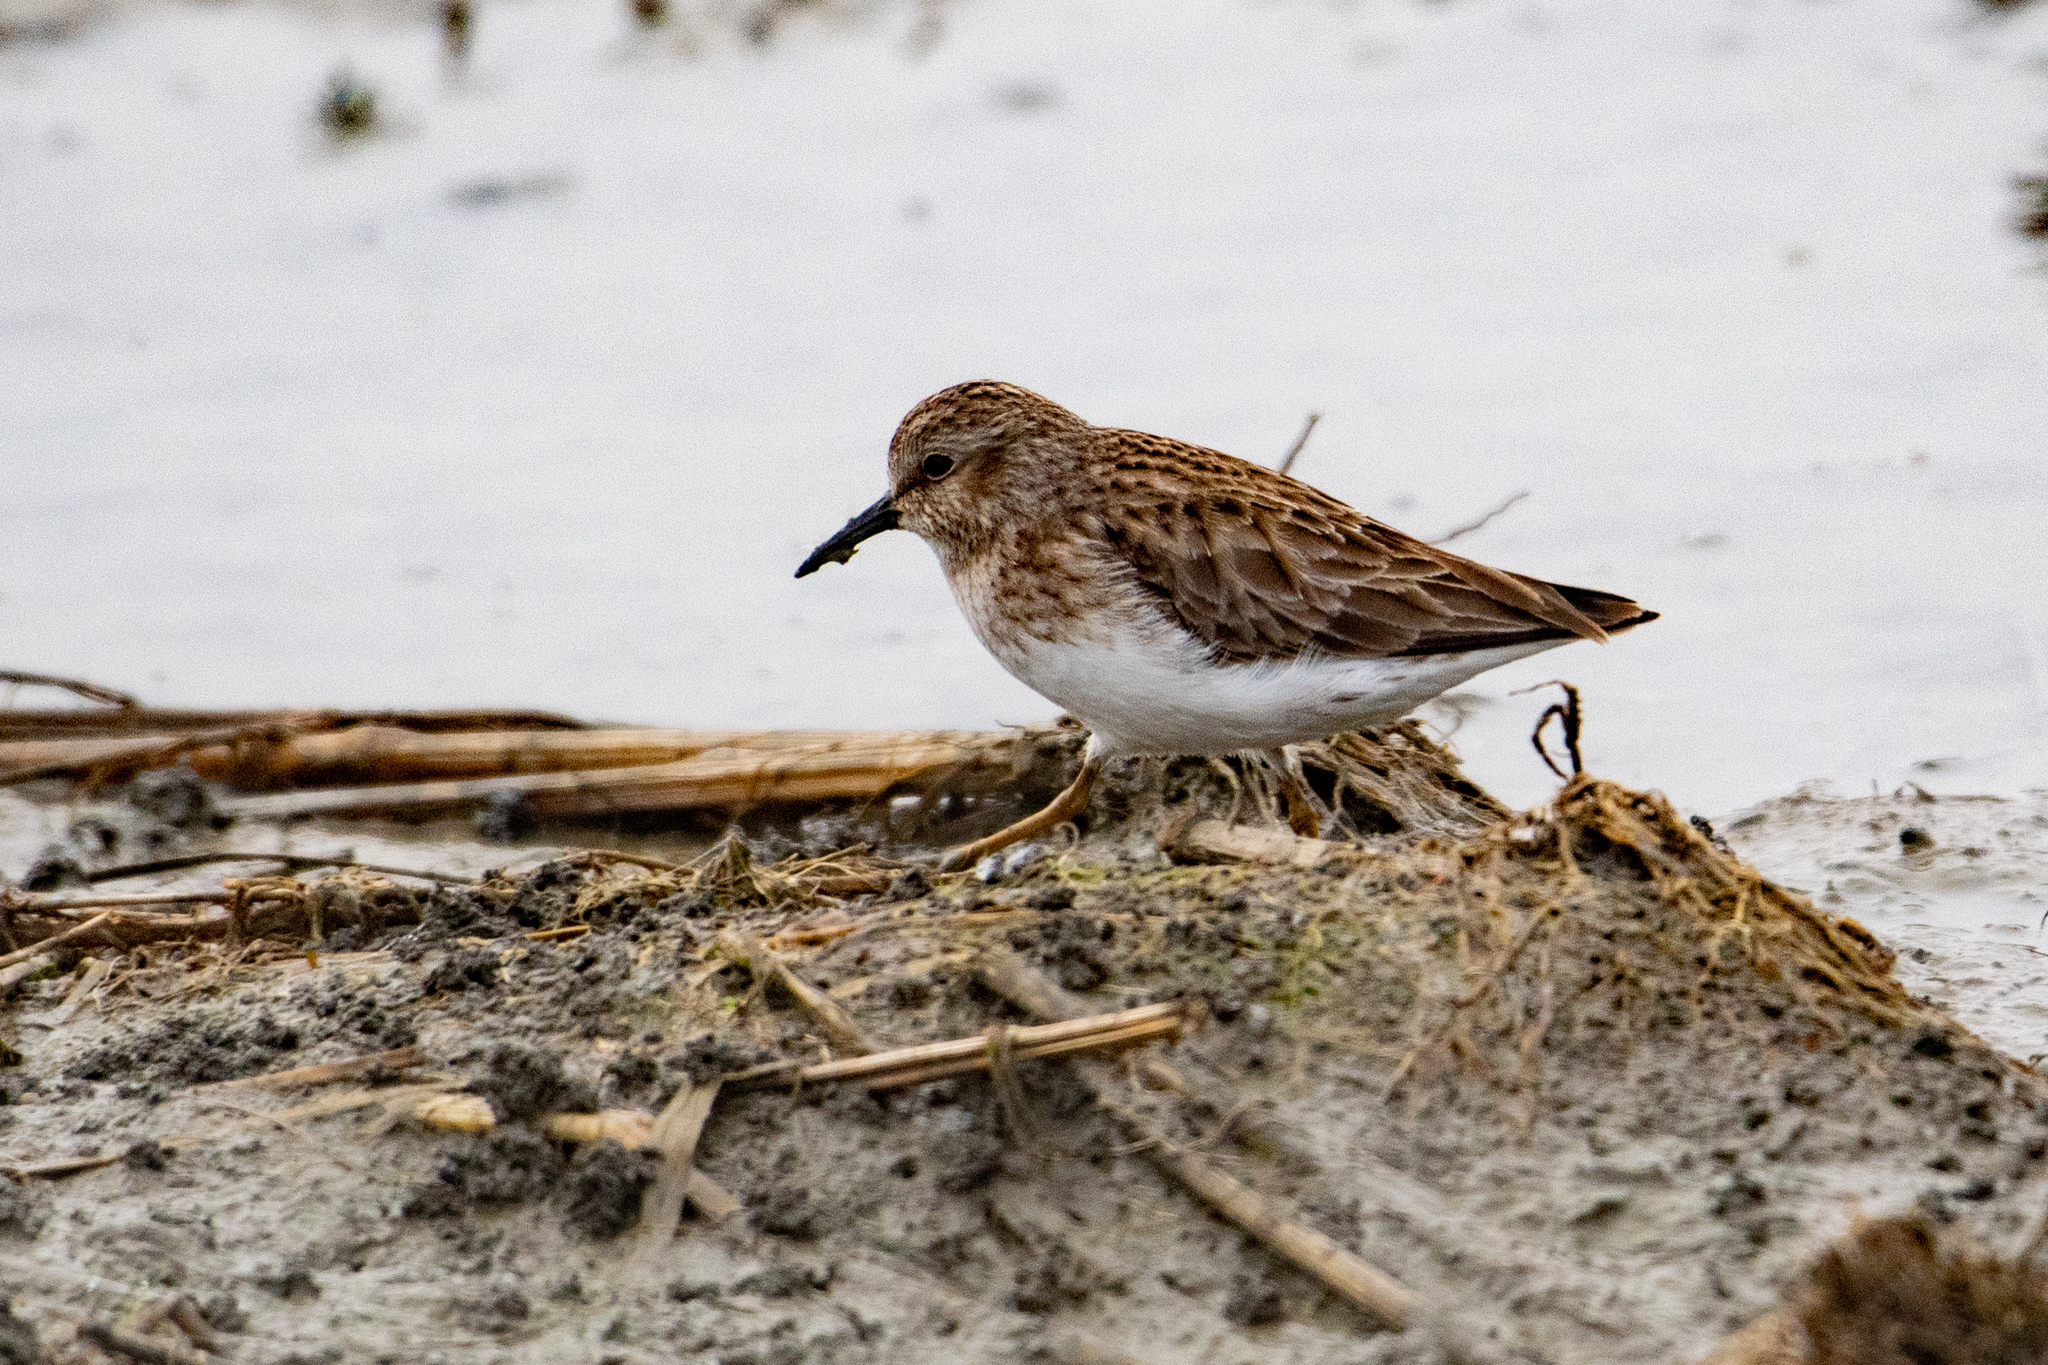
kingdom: Animalia
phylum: Chordata
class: Aves
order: Charadriiformes
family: Scolopacidae
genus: Calidris
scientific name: Calidris minutilla
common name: Least sandpiper
